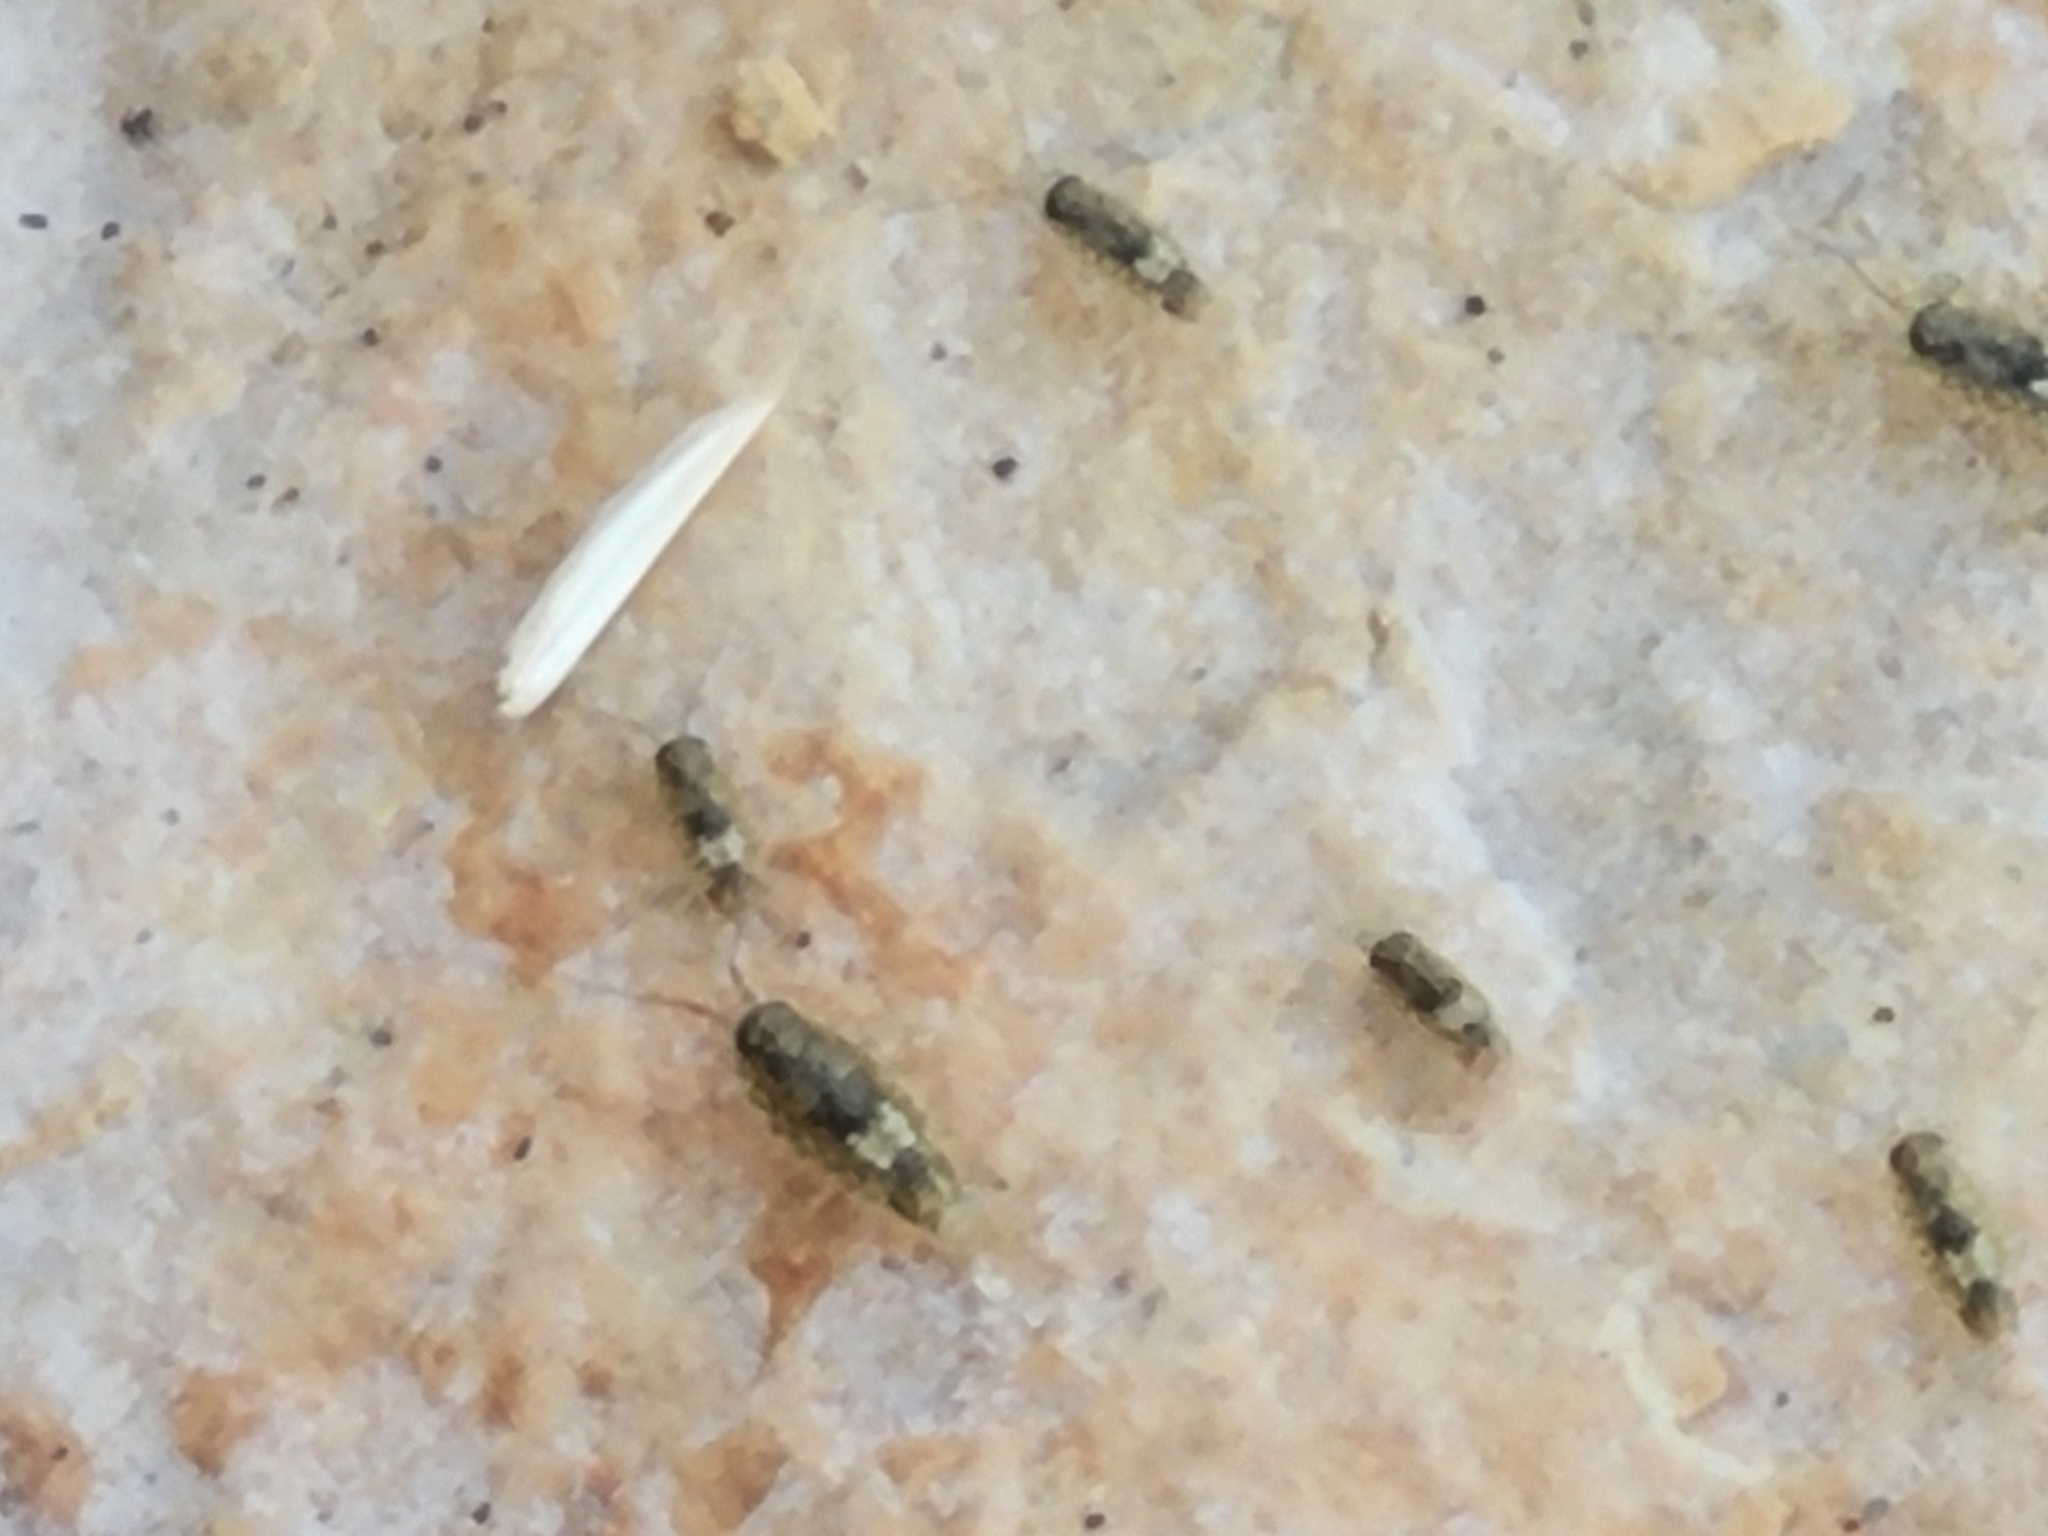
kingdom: Animalia
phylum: Arthropoda
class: Malacostraca
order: Isopoda
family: Ligiidae
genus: Ligia
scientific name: Ligia italica
